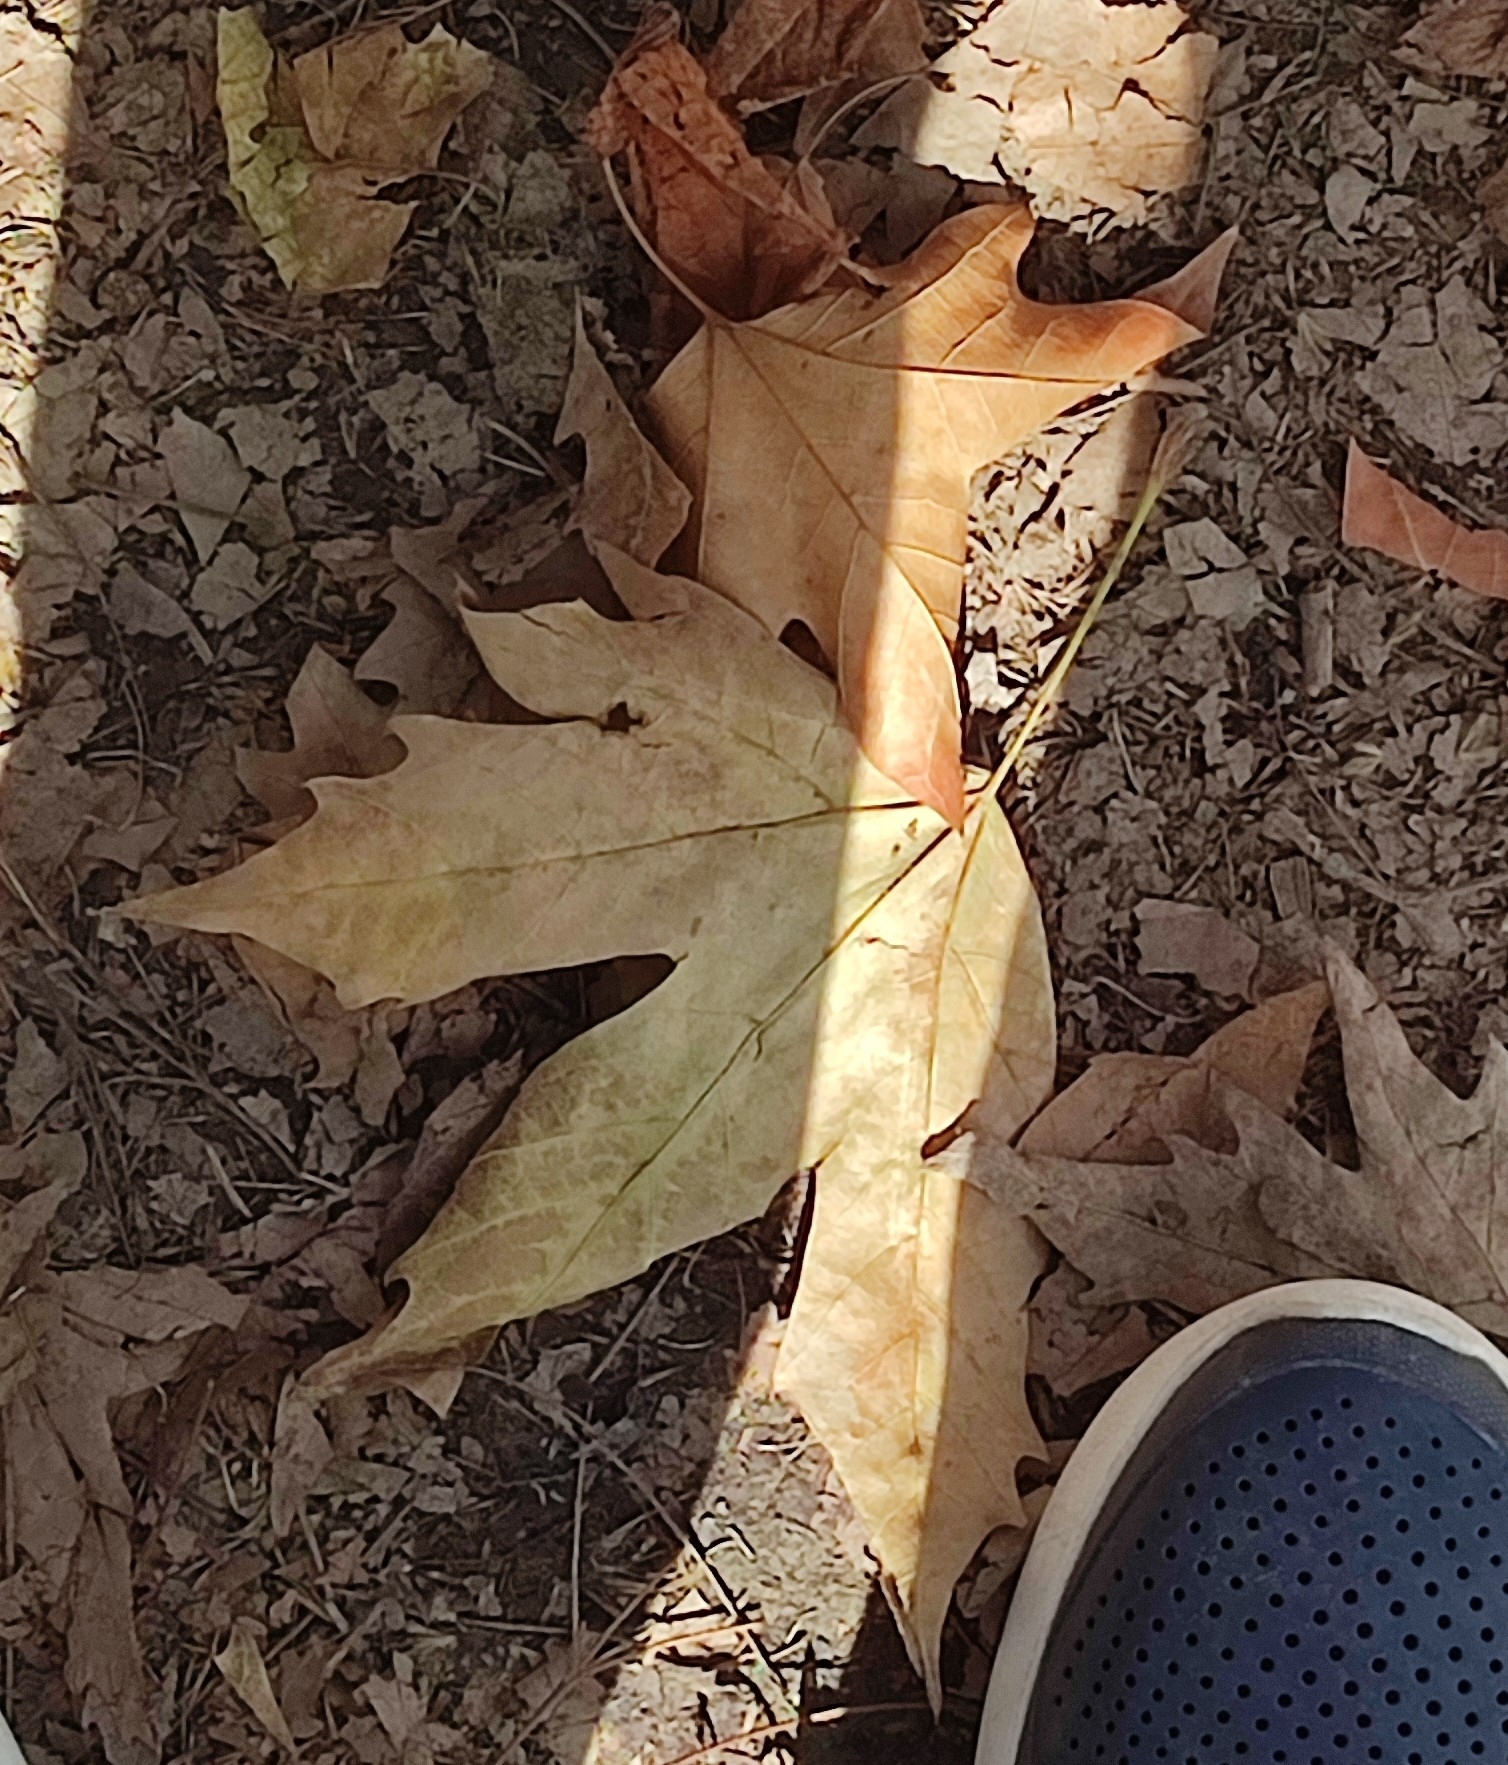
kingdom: Plantae
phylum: Tracheophyta
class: Magnoliopsida
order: Proteales
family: Platanaceae
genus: Platanus
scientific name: Platanus orientalis
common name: Oriental plane
